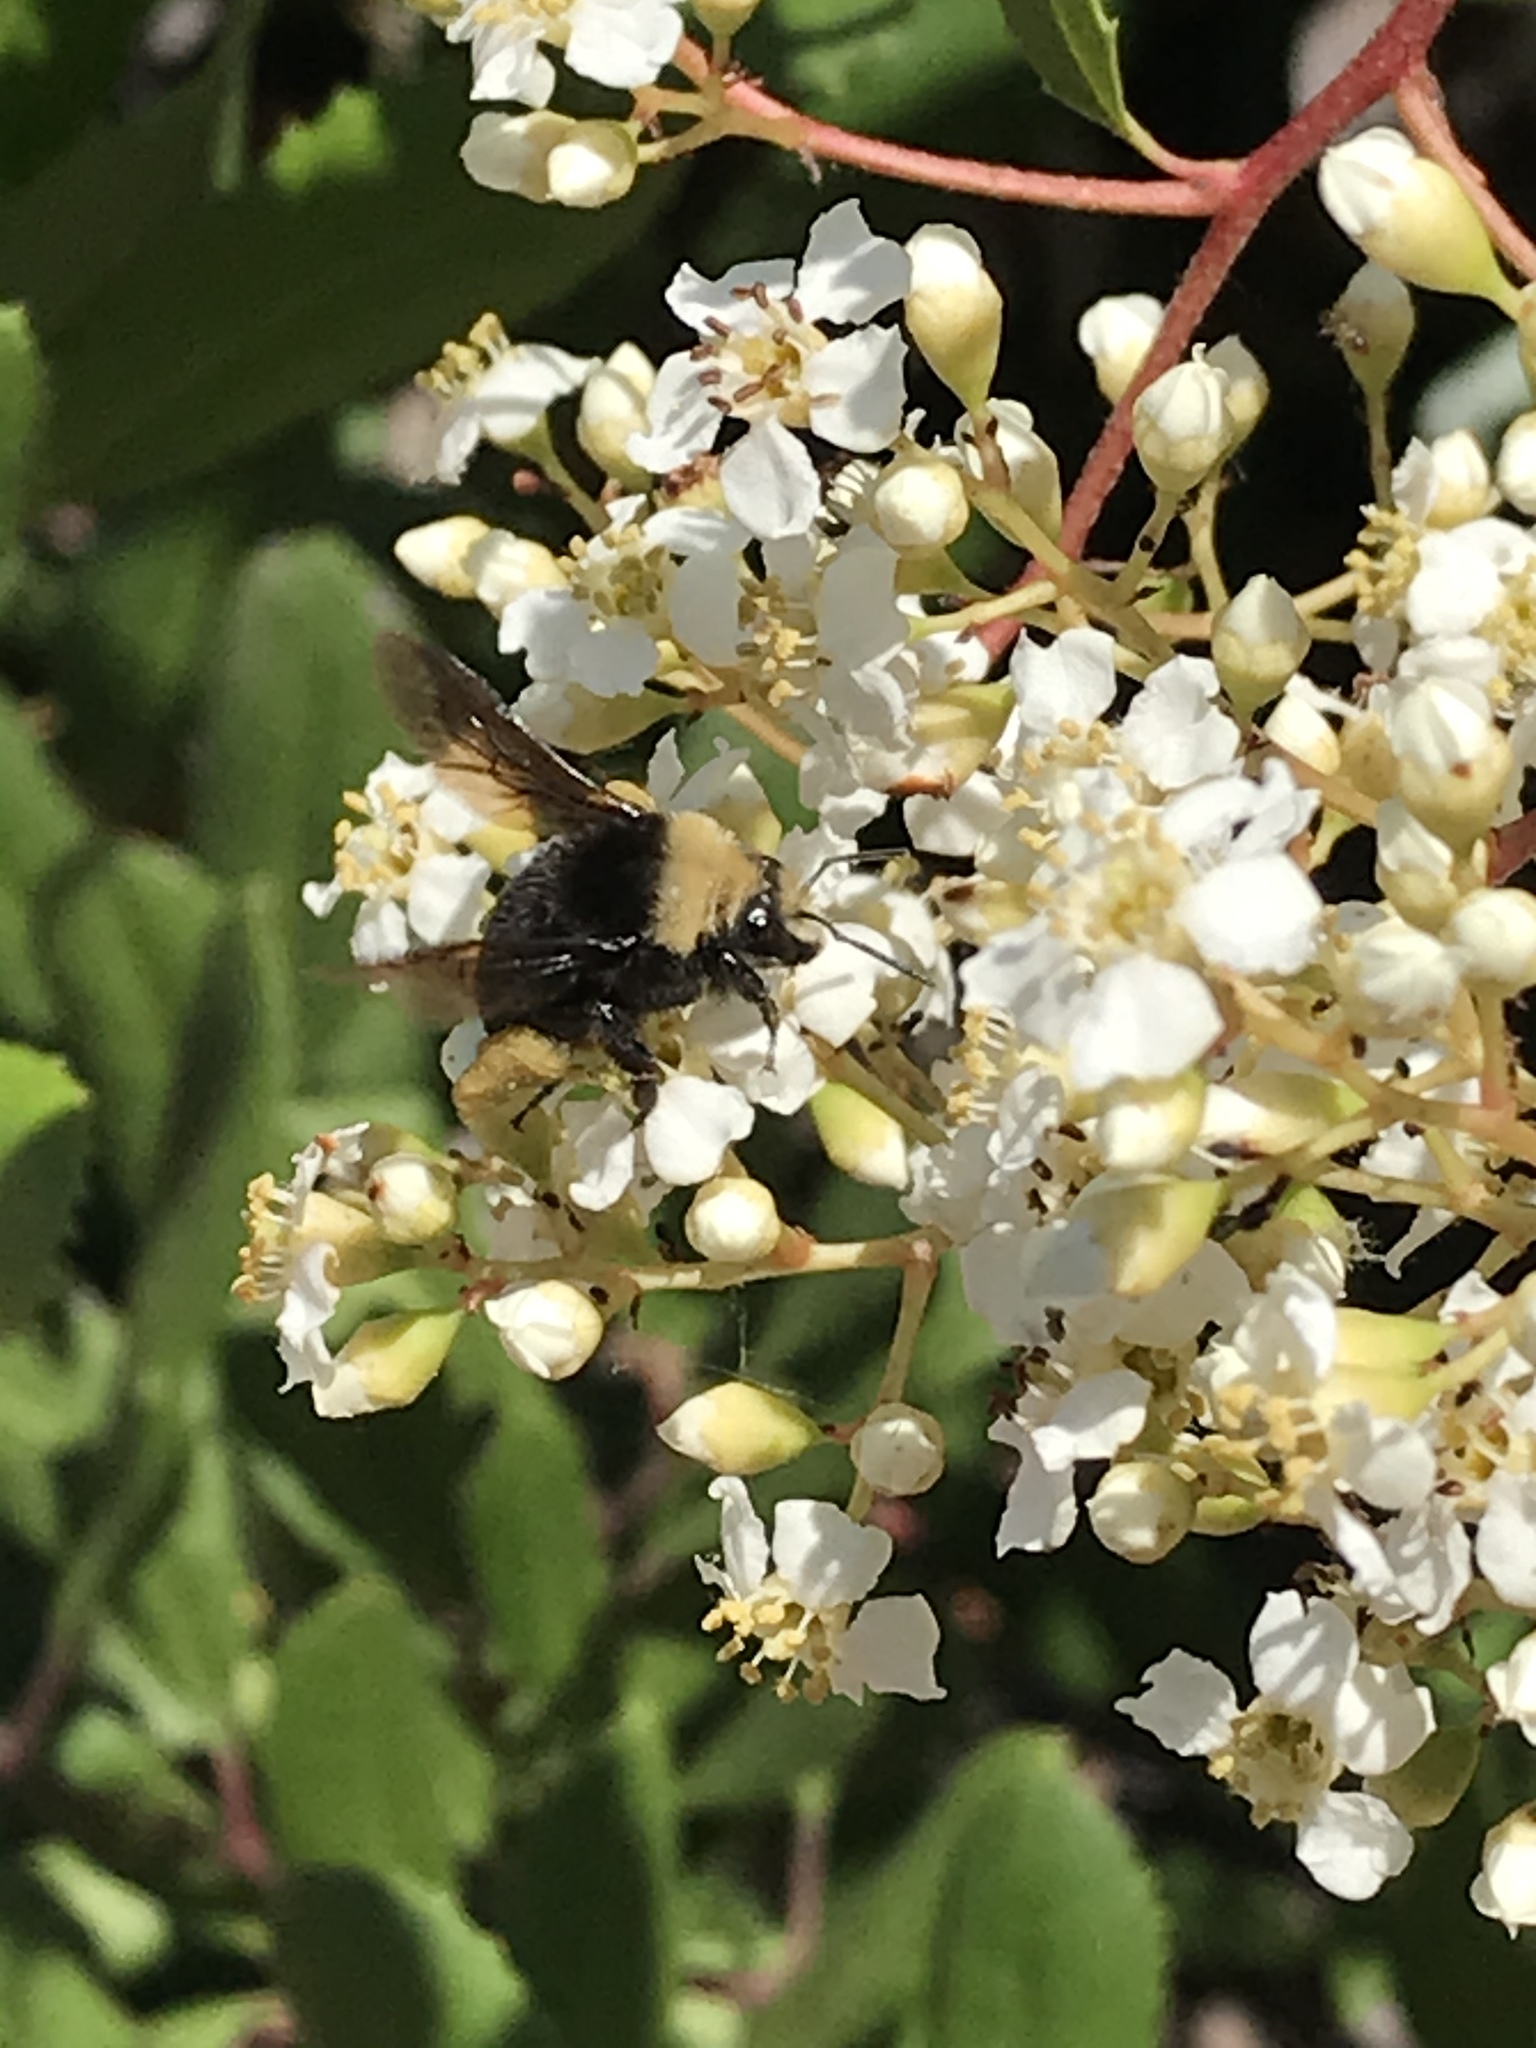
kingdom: Animalia
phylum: Arthropoda
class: Insecta
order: Hymenoptera
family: Apidae
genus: Bombus
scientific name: Bombus vosnesenskii
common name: Vosnesensky bumble bee
